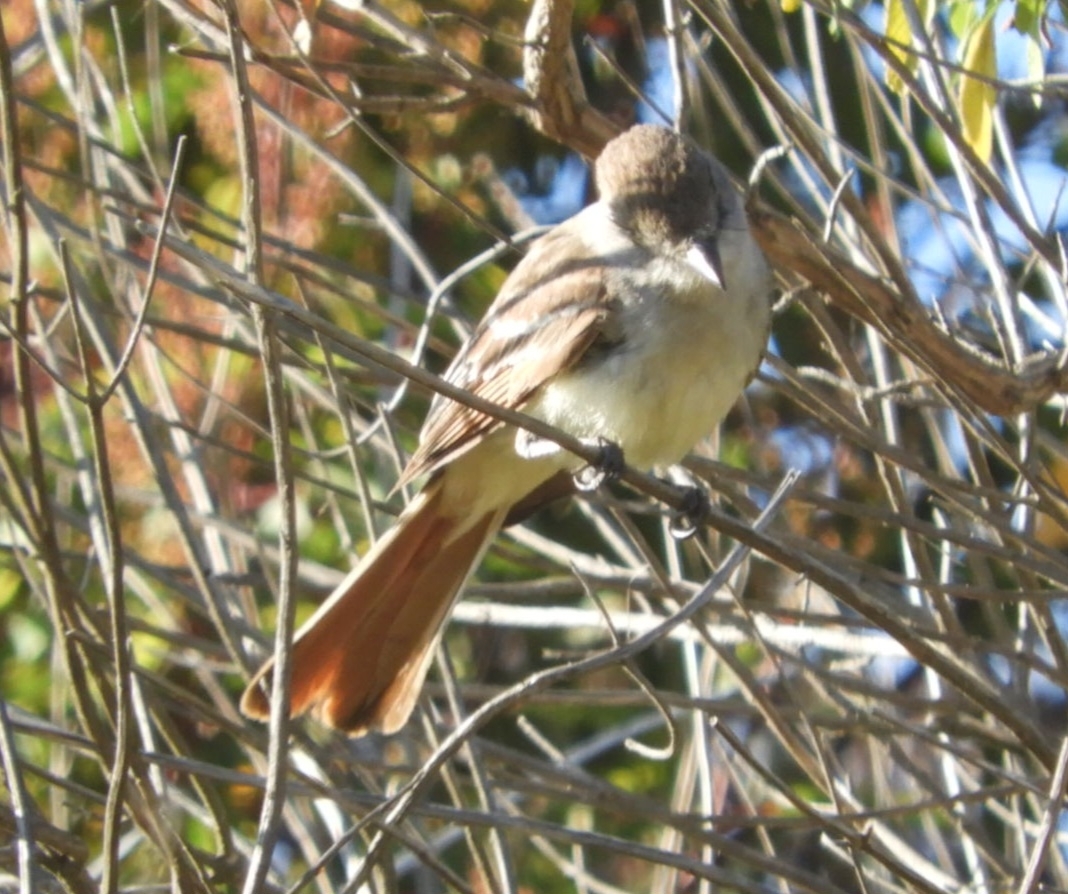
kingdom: Animalia
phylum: Chordata
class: Aves
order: Passeriformes
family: Tyrannidae
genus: Myiarchus
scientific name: Myiarchus cinerascens
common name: Ash-throated flycatcher
